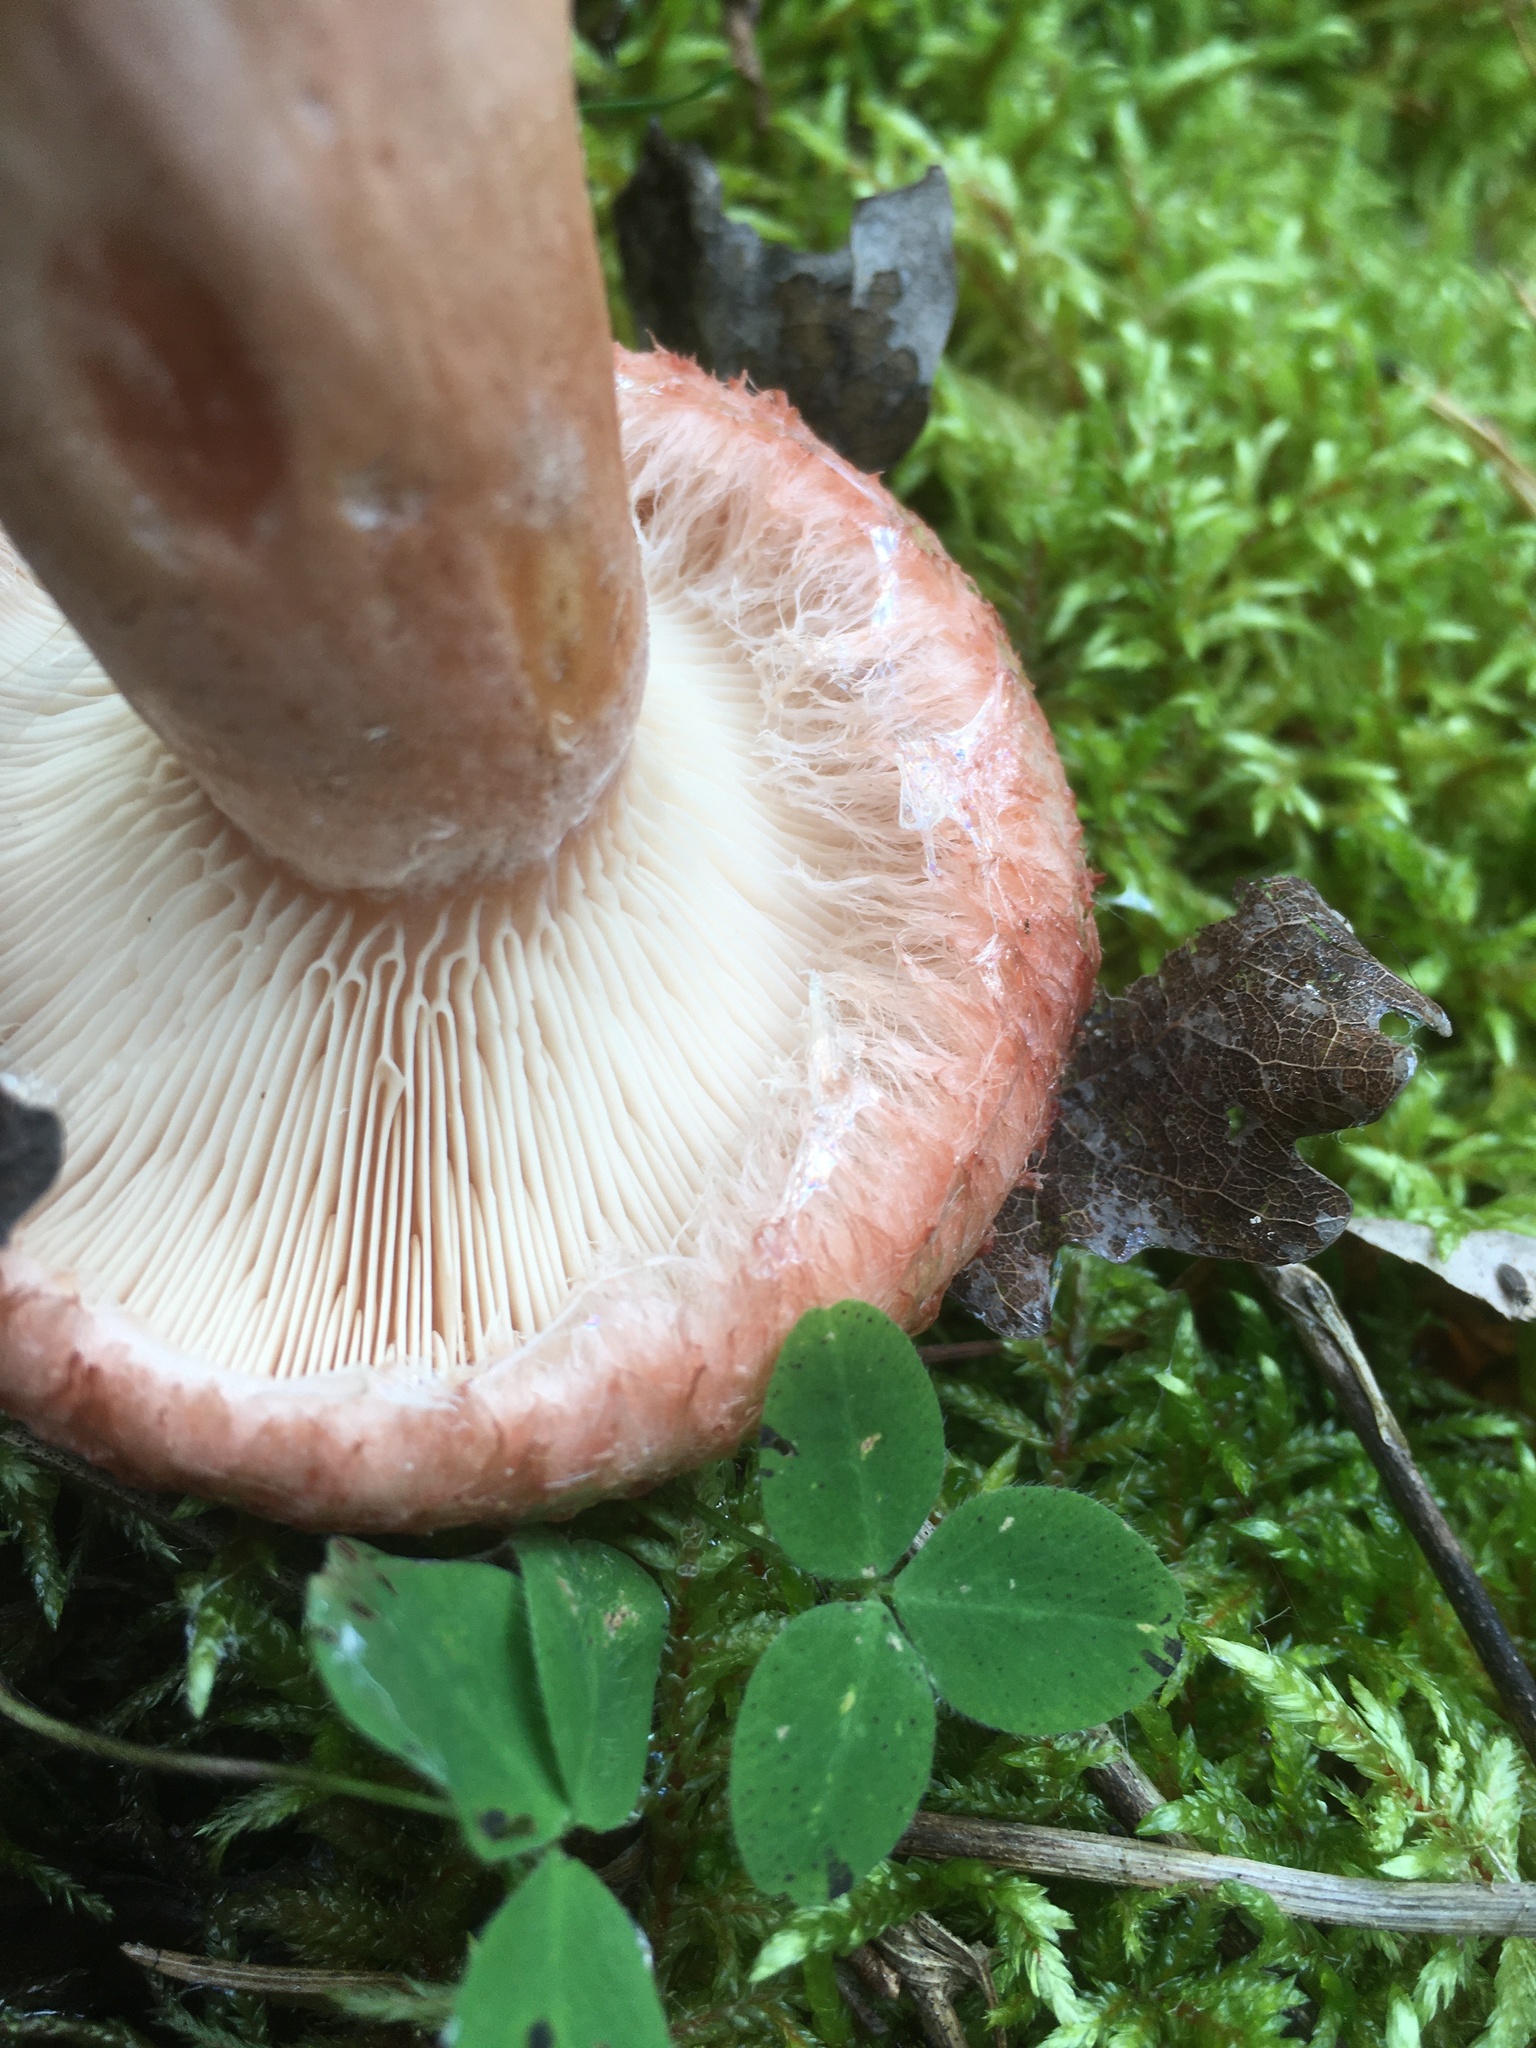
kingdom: Fungi
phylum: Basidiomycota
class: Agaricomycetes
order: Russulales
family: Russulaceae
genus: Lactarius
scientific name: Lactarius torminosus
